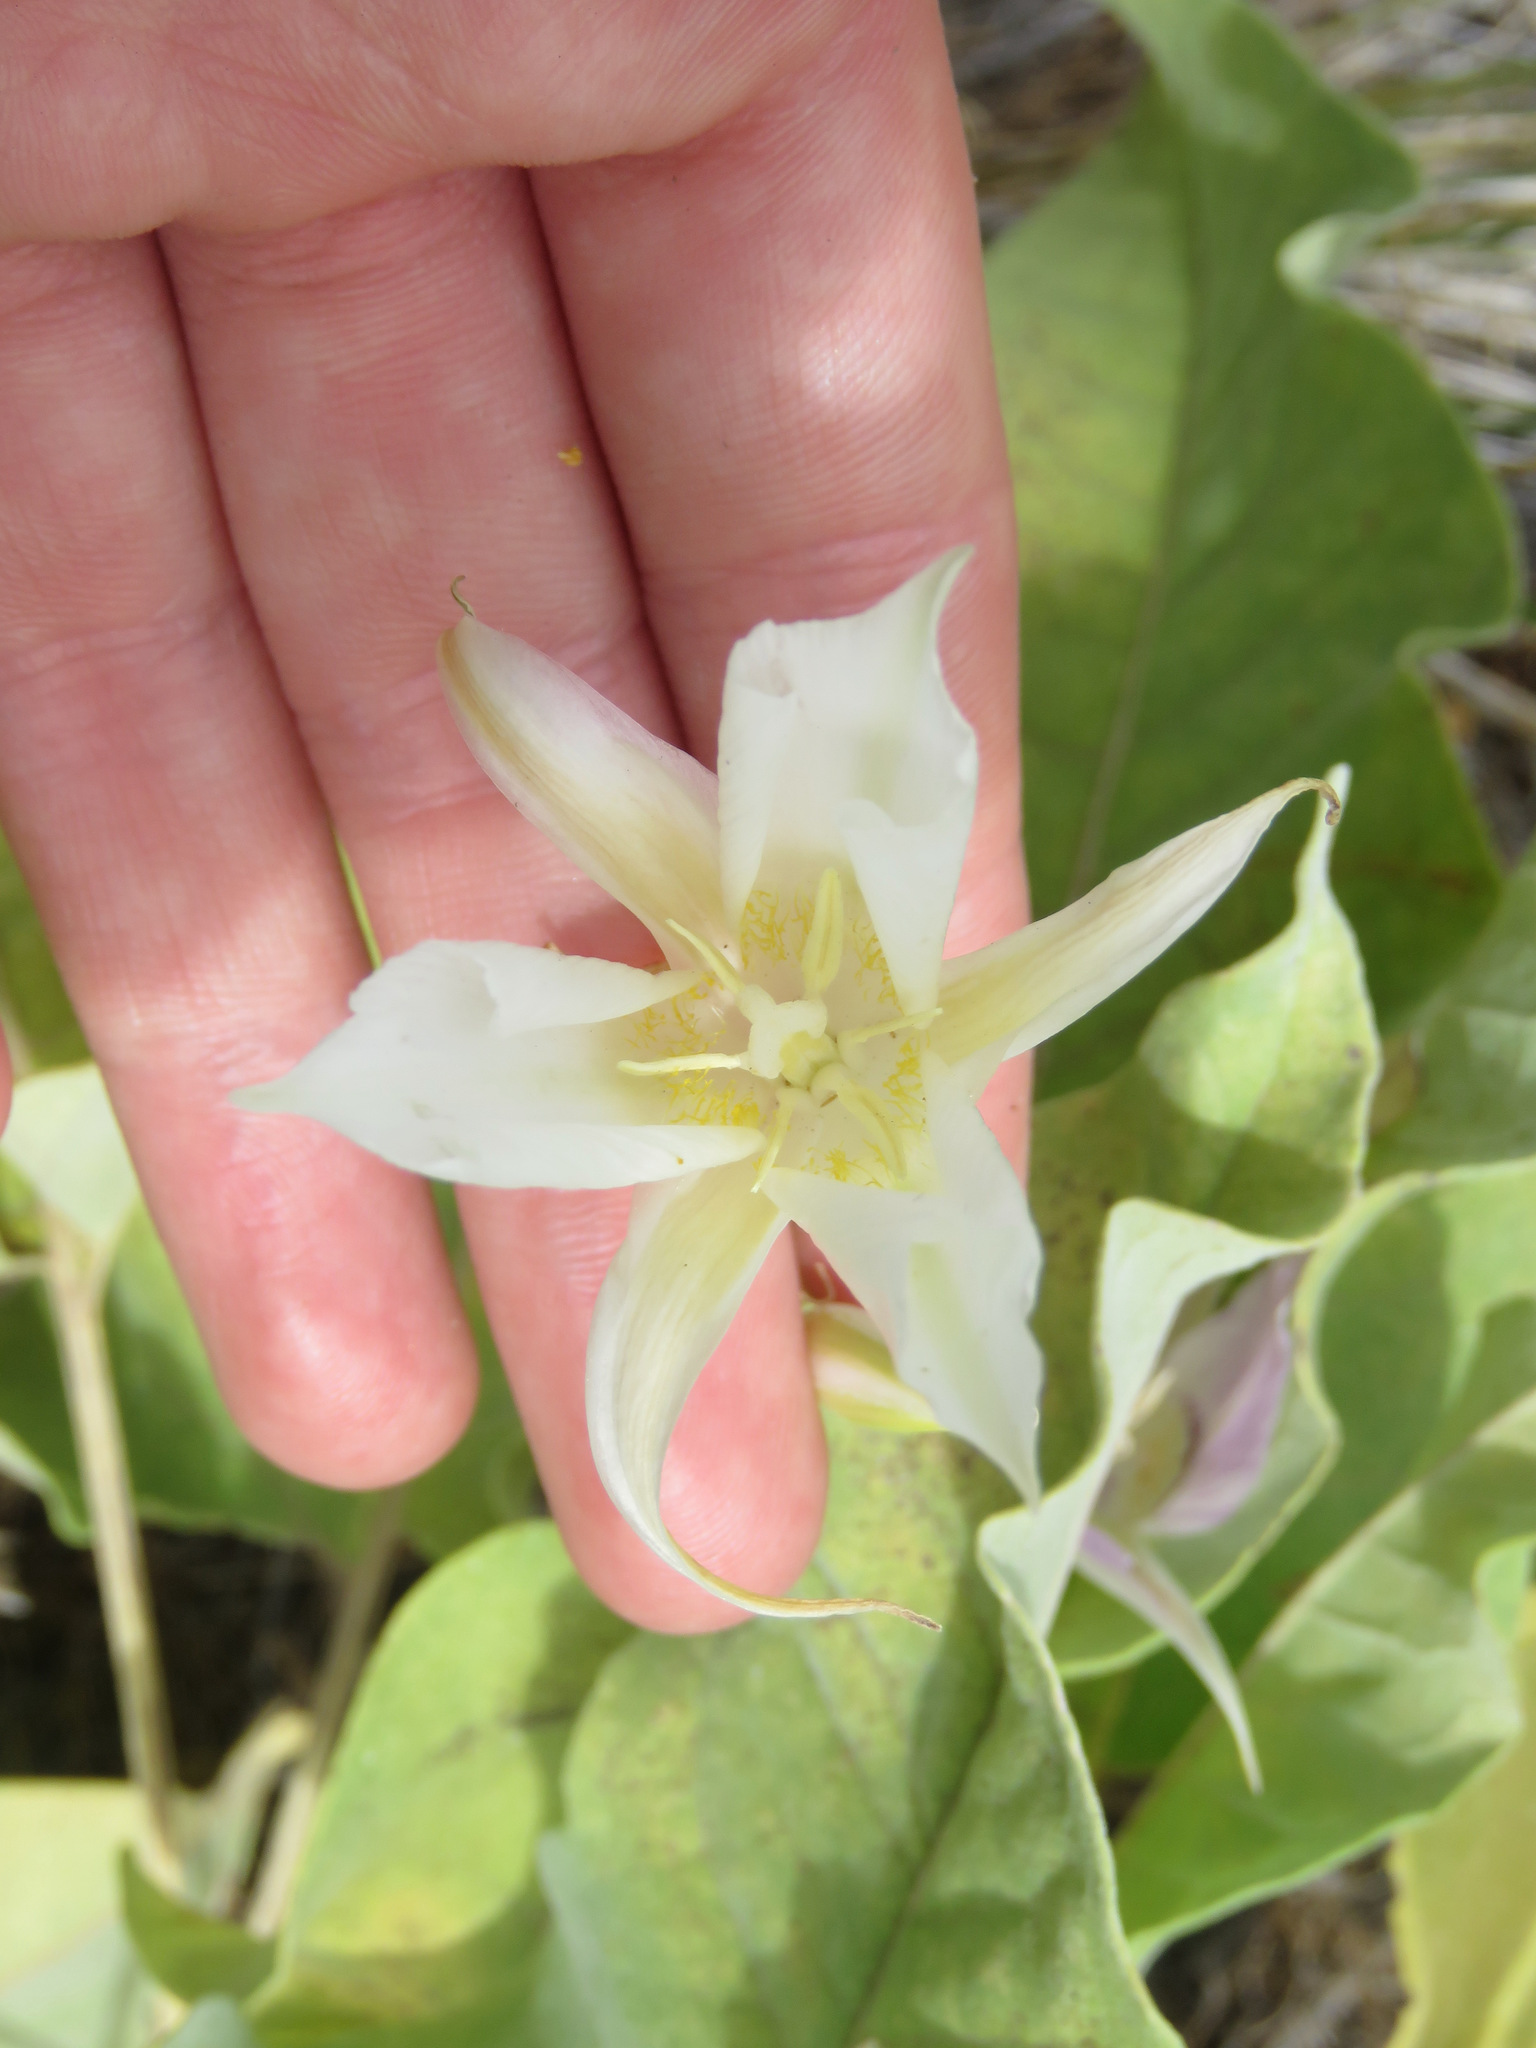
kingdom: Plantae
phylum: Tracheophyta
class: Liliopsida
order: Liliales
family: Liliaceae
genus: Calochortus
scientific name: Calochortus macrocarpus
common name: Green-band mariposa lily
